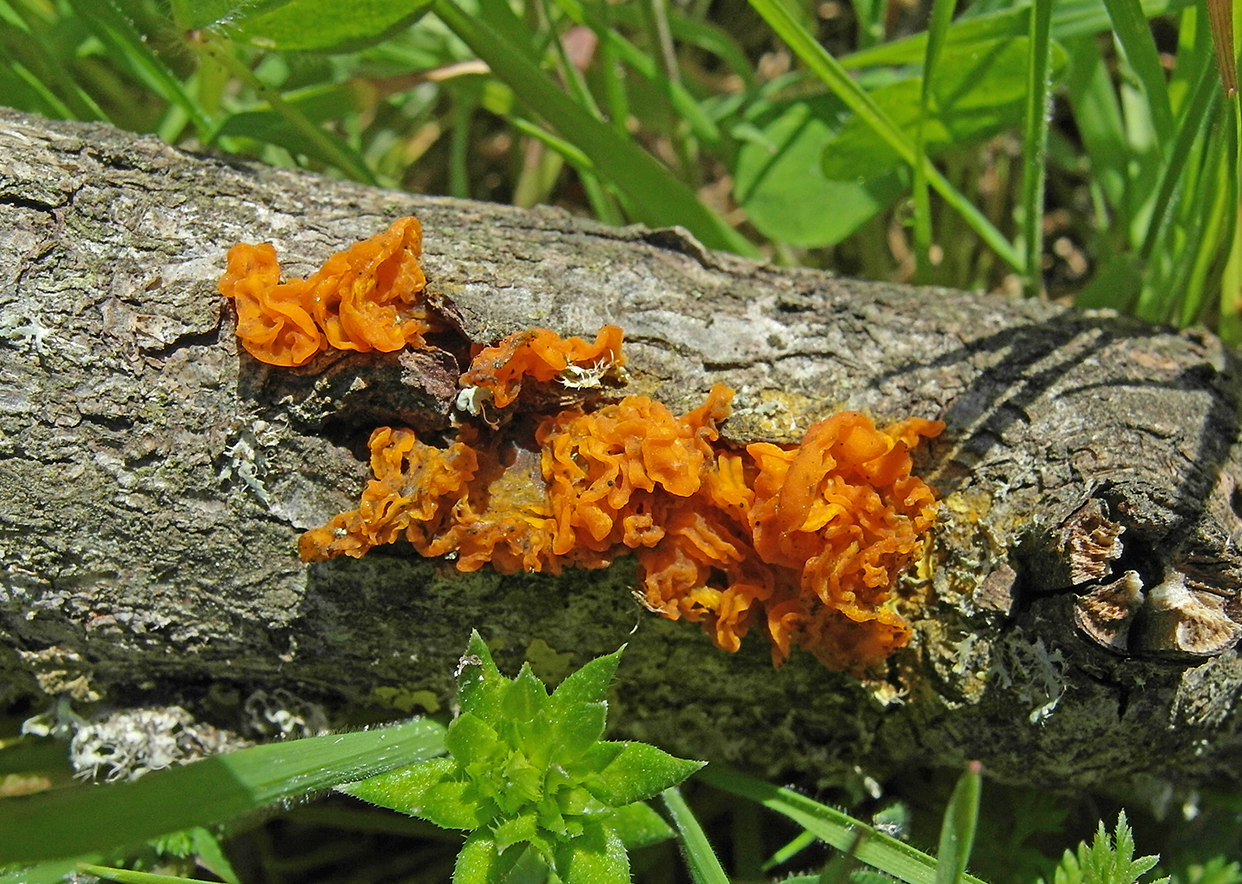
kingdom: Fungi
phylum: Basidiomycota
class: Tremellomycetes
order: Tremellales
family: Tremellaceae
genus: Tremella
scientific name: Tremella mesenterica
